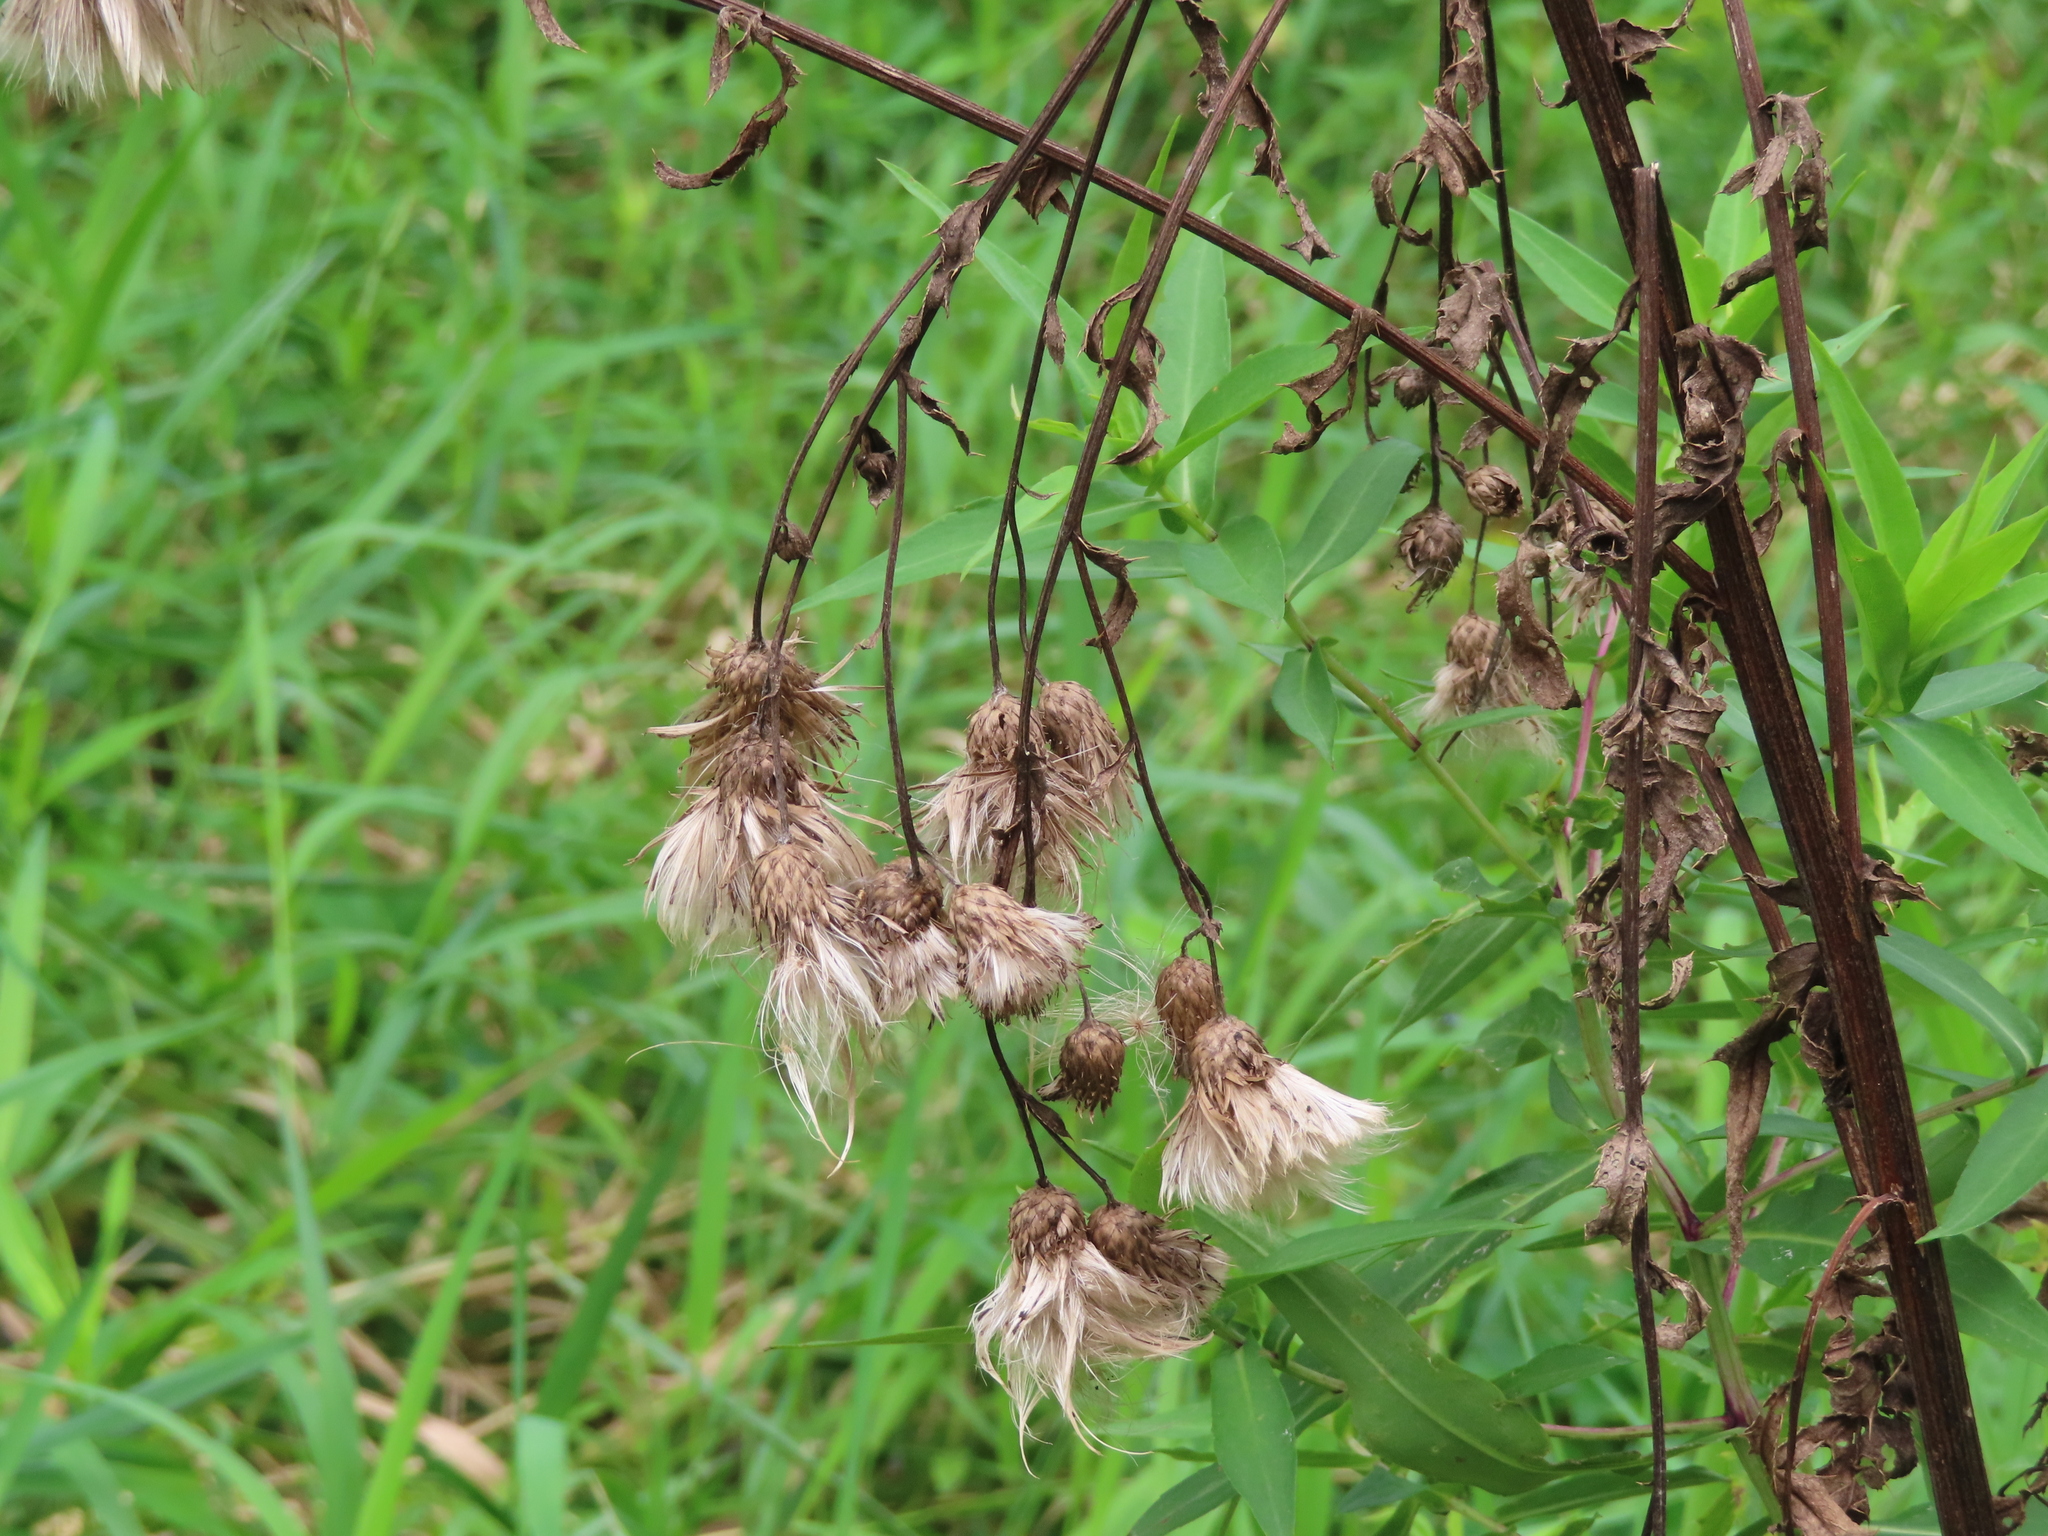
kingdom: Plantae
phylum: Tracheophyta
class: Magnoliopsida
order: Asterales
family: Asteraceae
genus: Cirsium
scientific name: Cirsium arvense
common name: Creeping thistle
